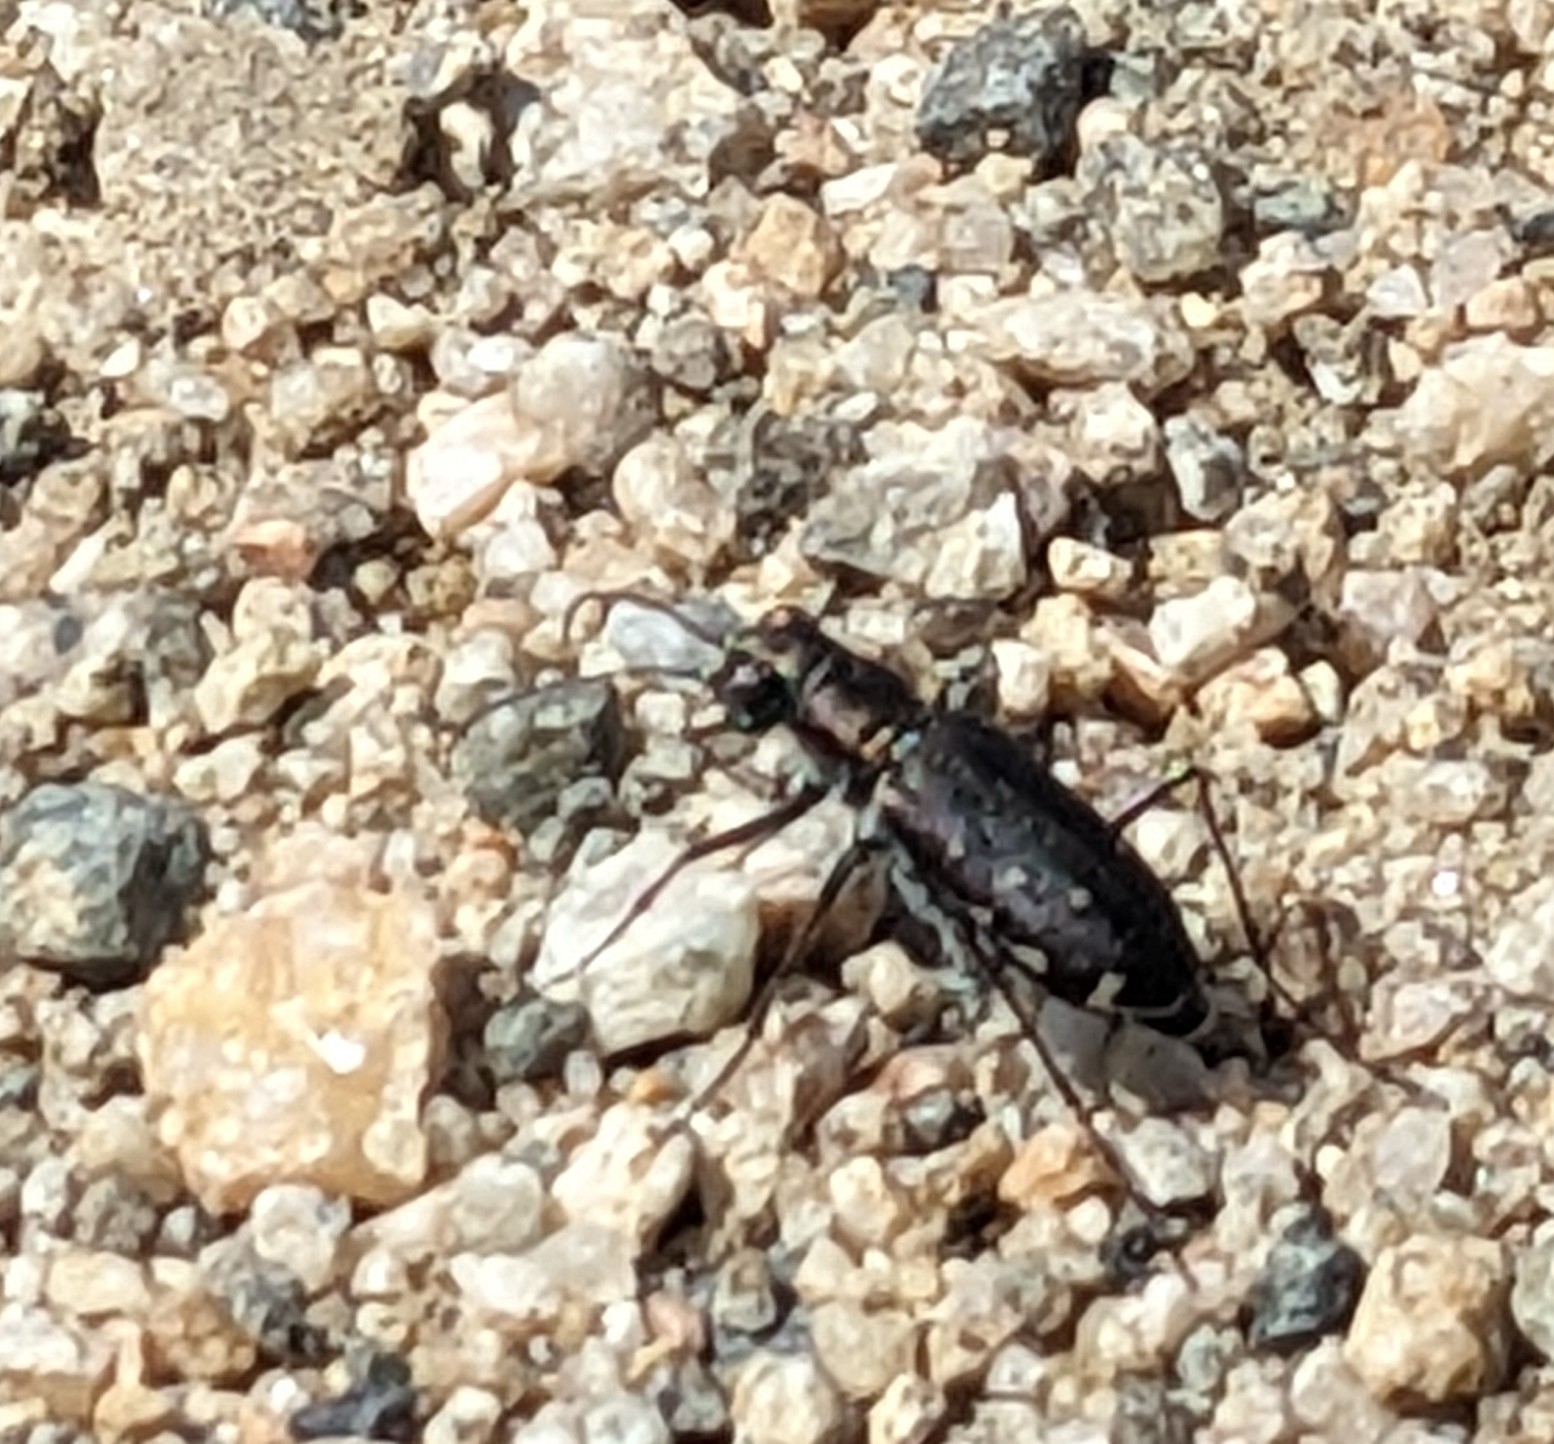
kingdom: Animalia
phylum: Arthropoda
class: Insecta
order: Coleoptera
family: Carabidae
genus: Cicindela
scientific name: Cicindela punctulata
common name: Punctured tiger beetle
